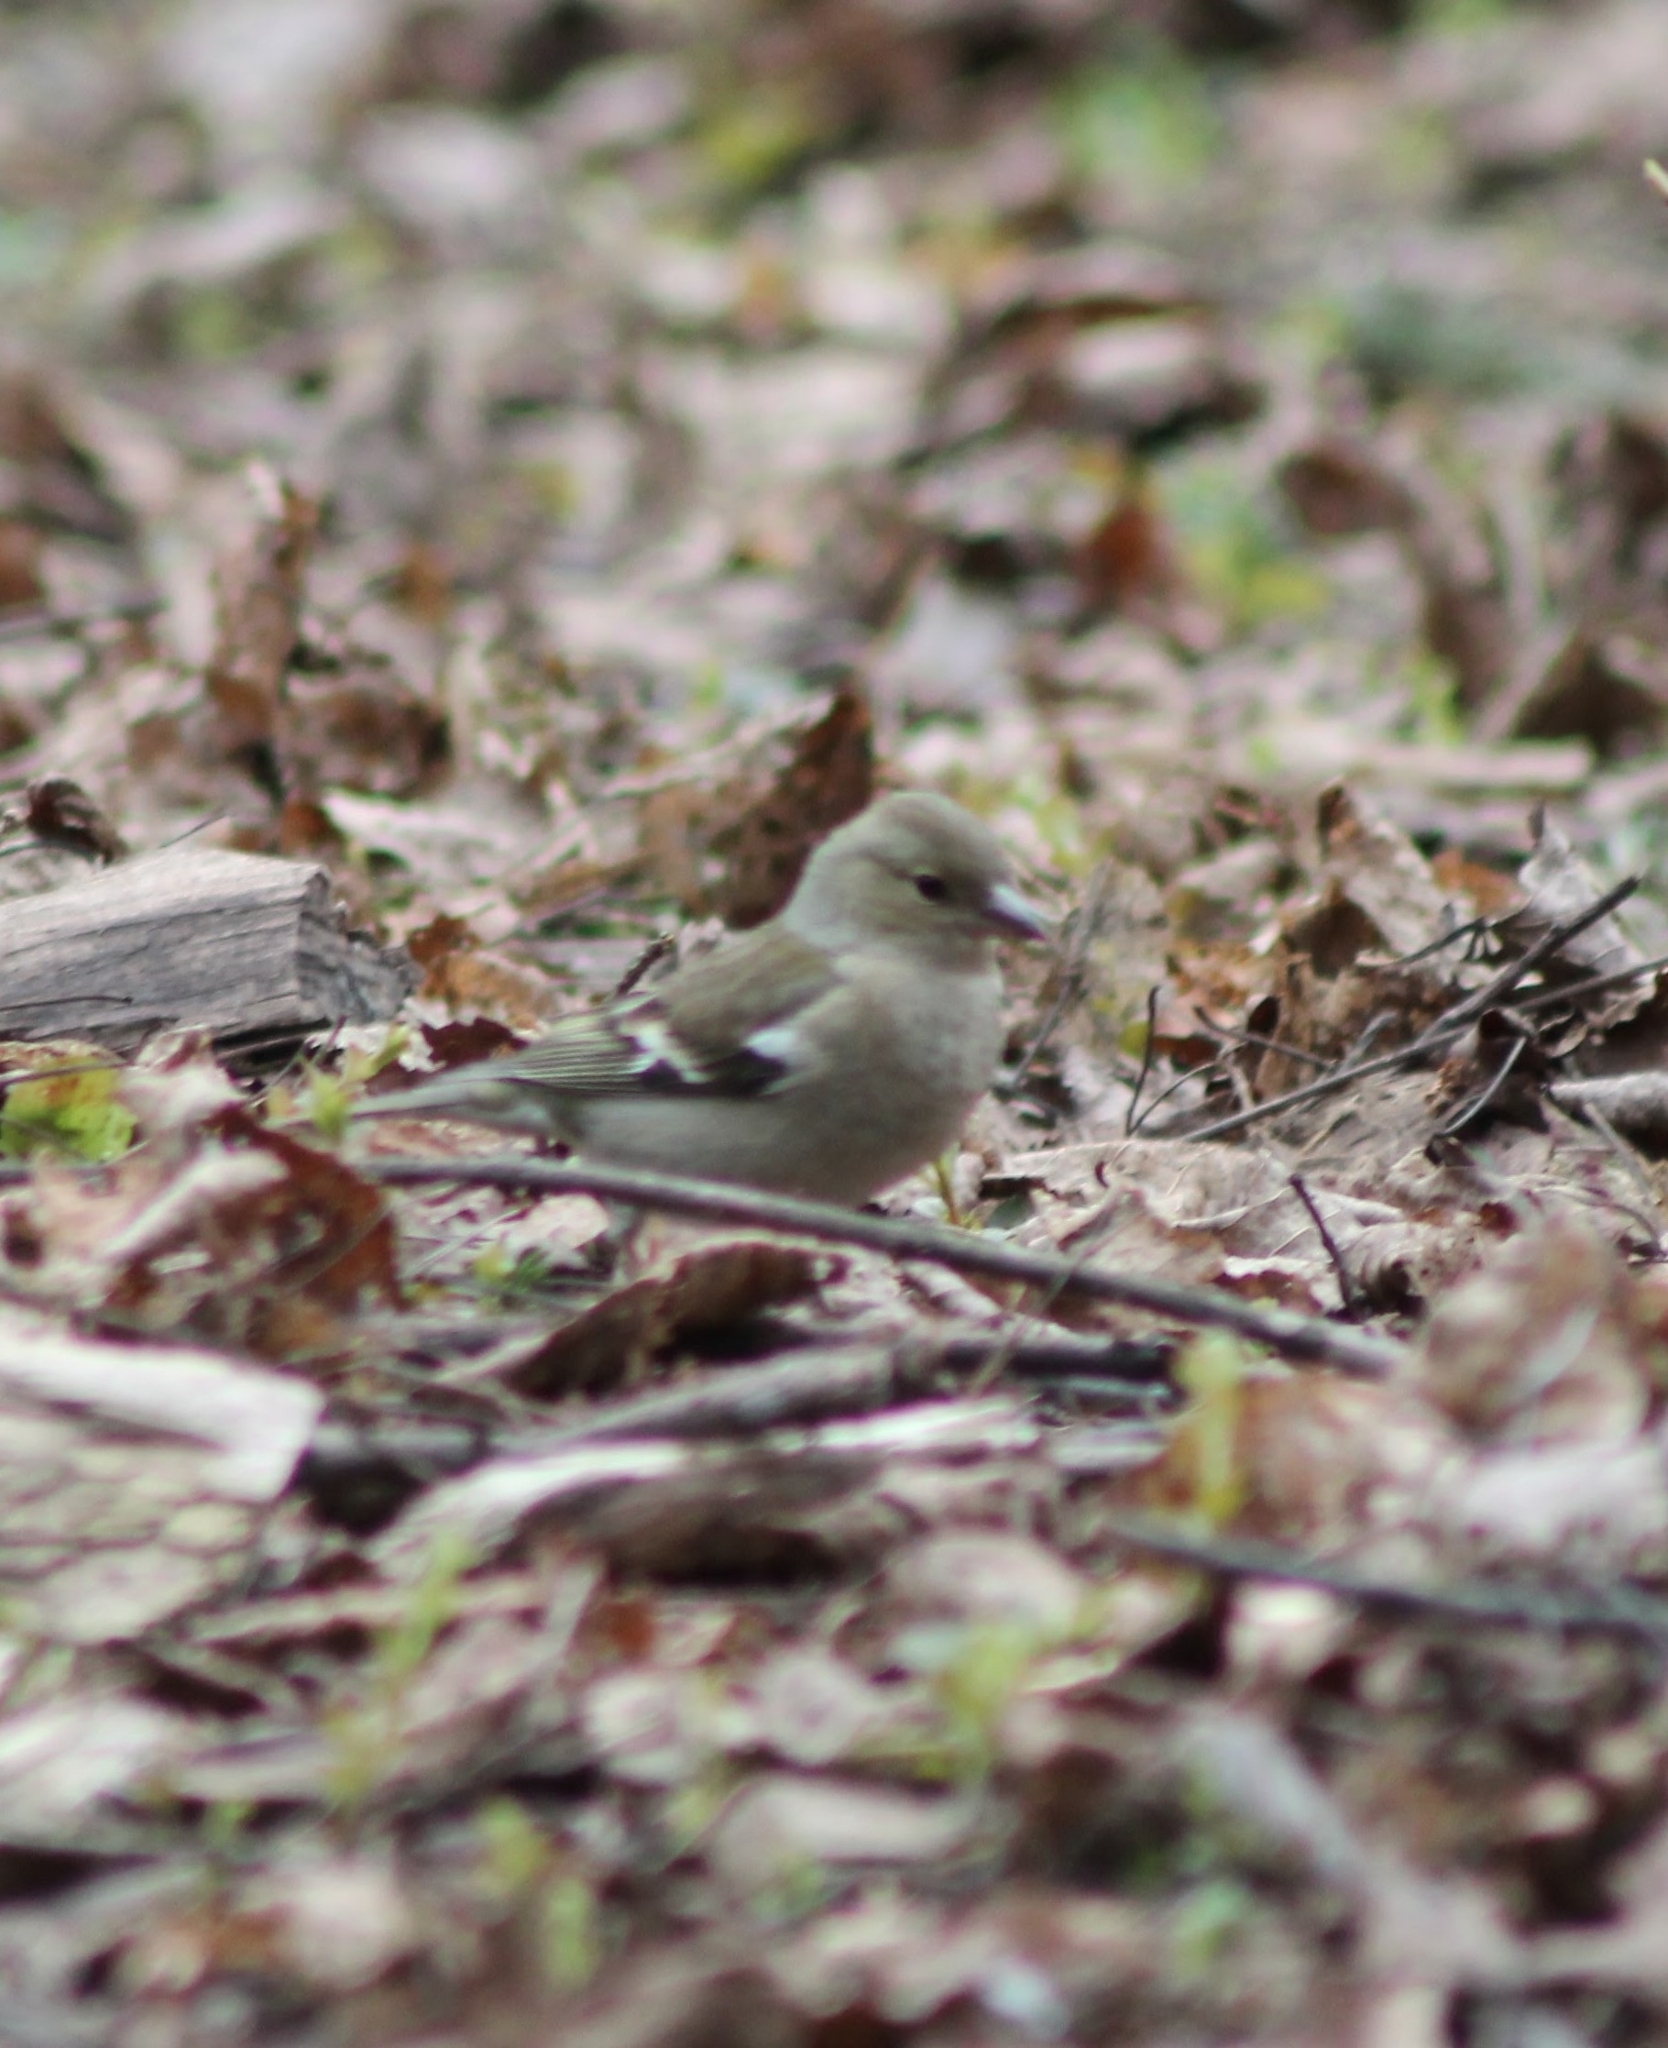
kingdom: Animalia
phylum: Chordata
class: Aves
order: Passeriformes
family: Fringillidae
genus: Fringilla
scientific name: Fringilla coelebs
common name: Common chaffinch
